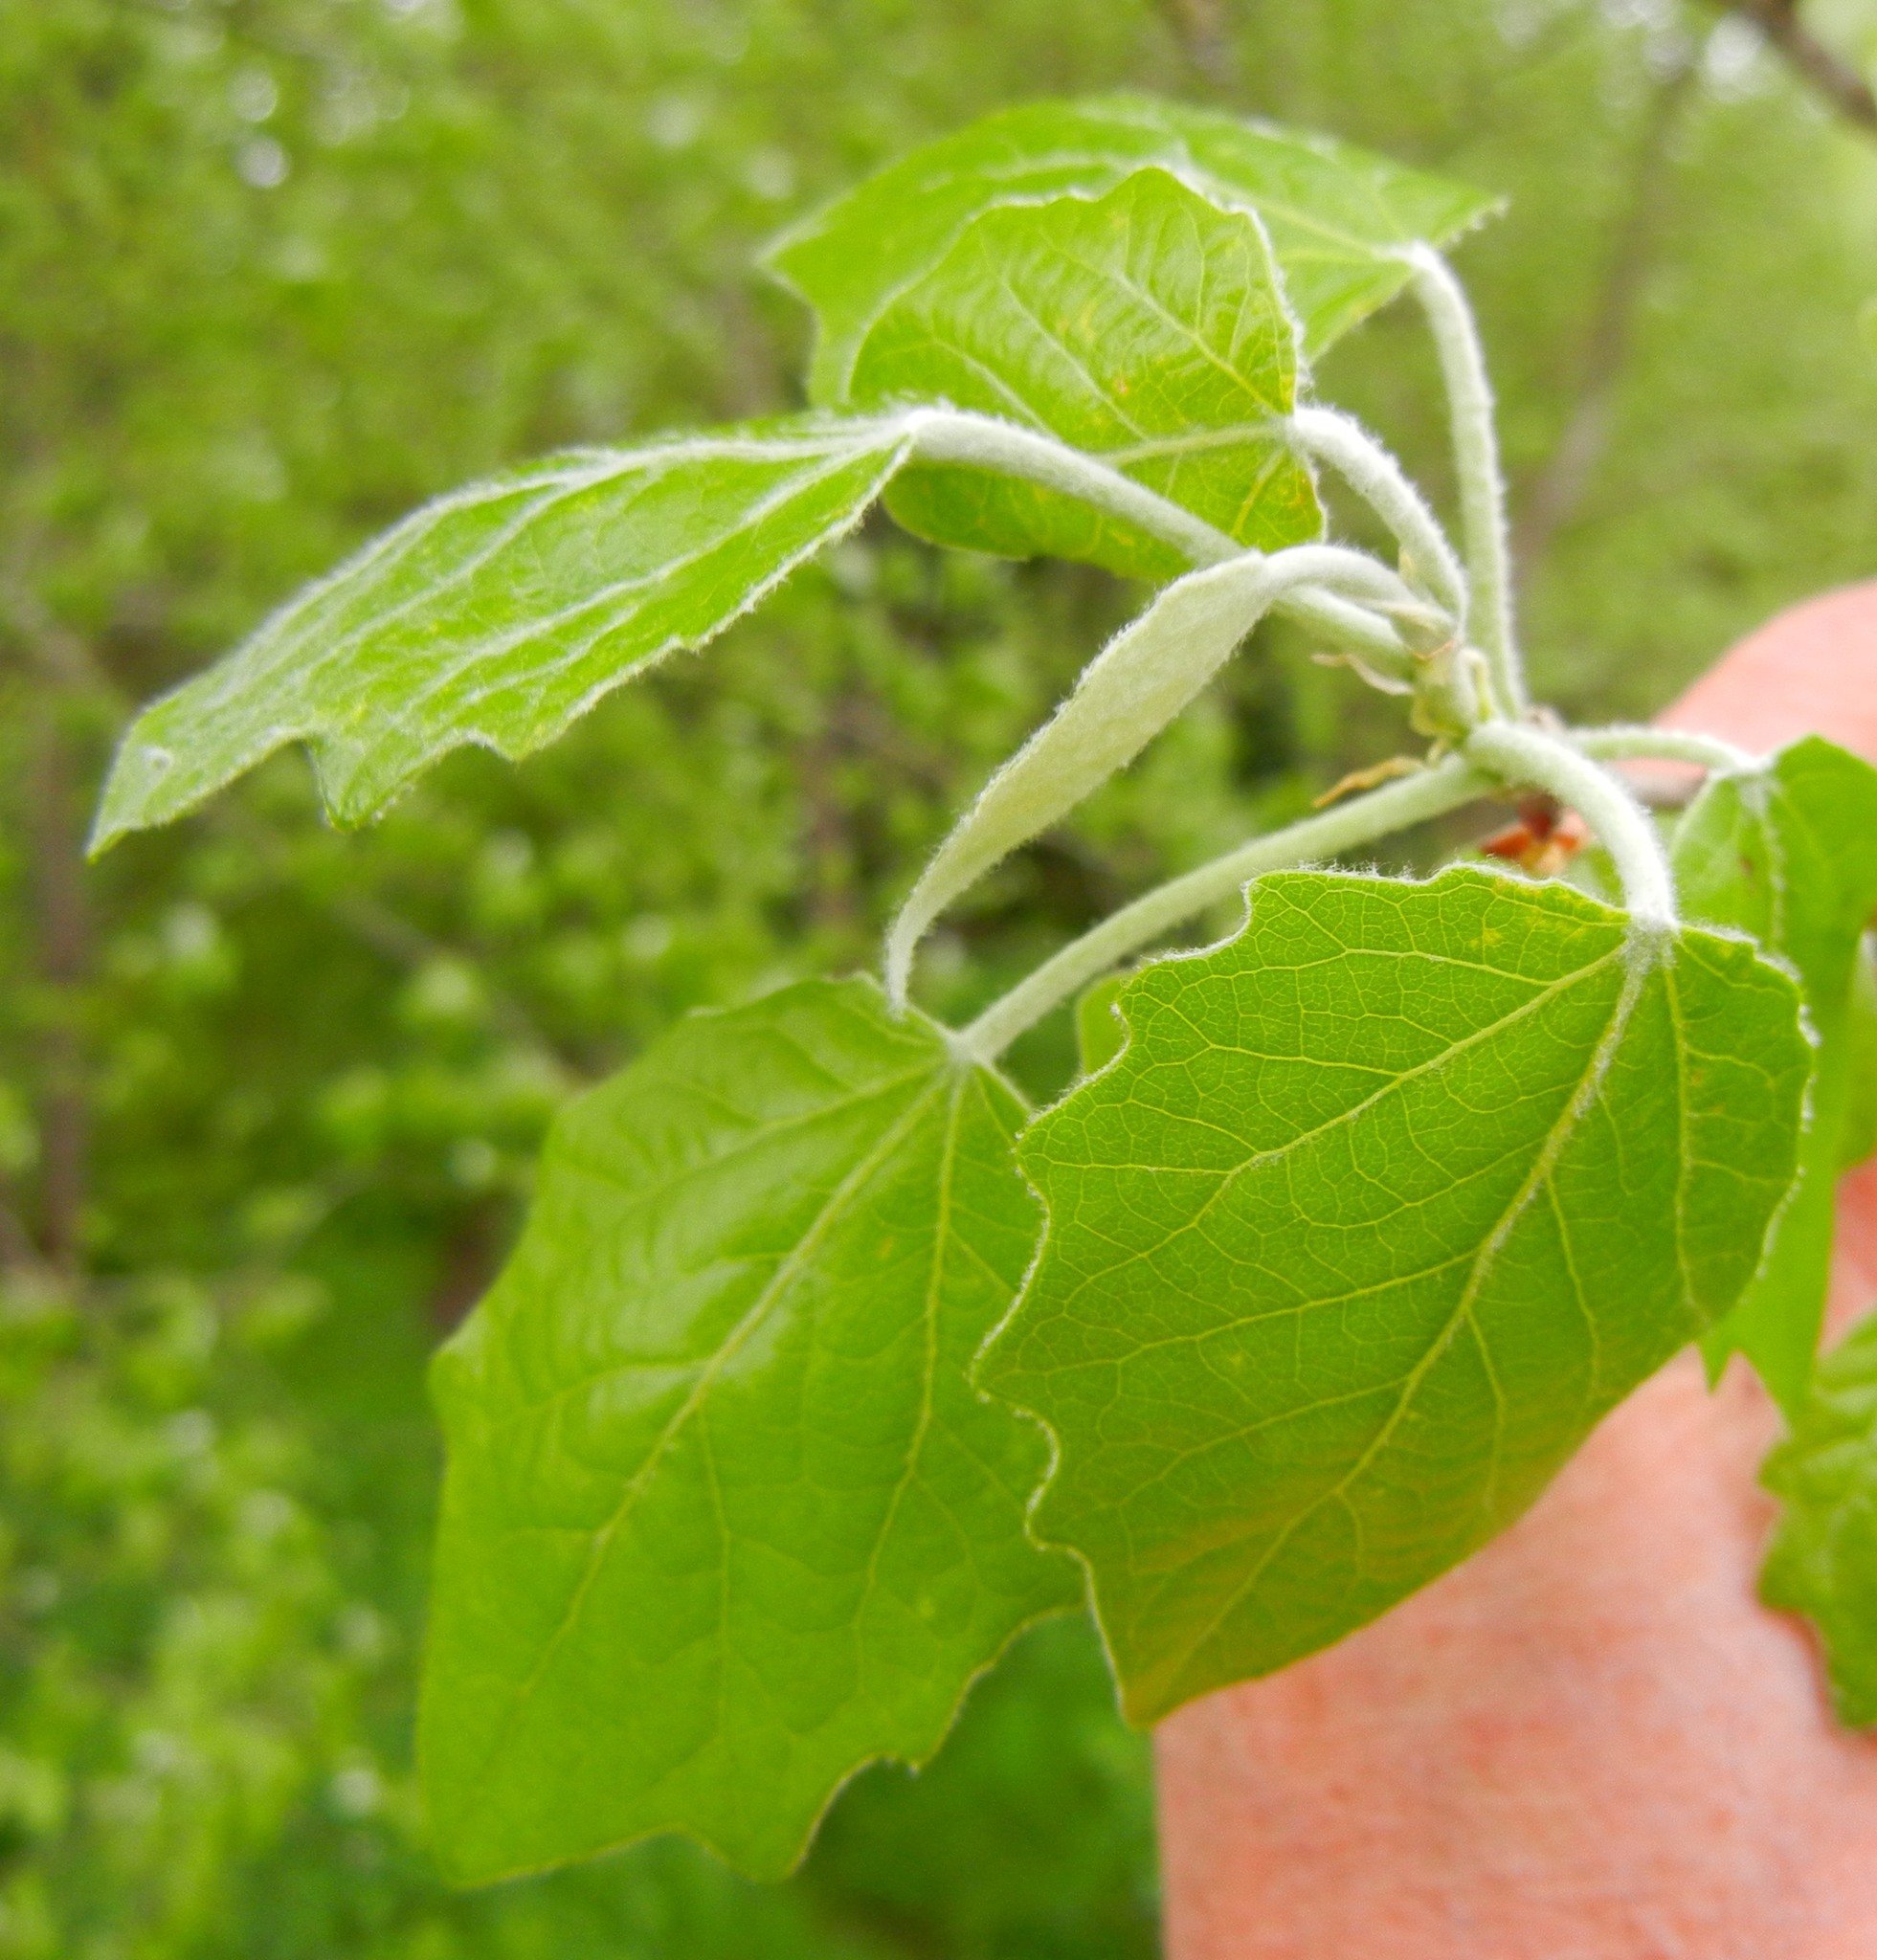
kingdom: Plantae
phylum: Tracheophyta
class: Magnoliopsida
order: Malpighiales
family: Salicaceae
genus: Populus
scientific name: Populus canescens
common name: Gray poplar
